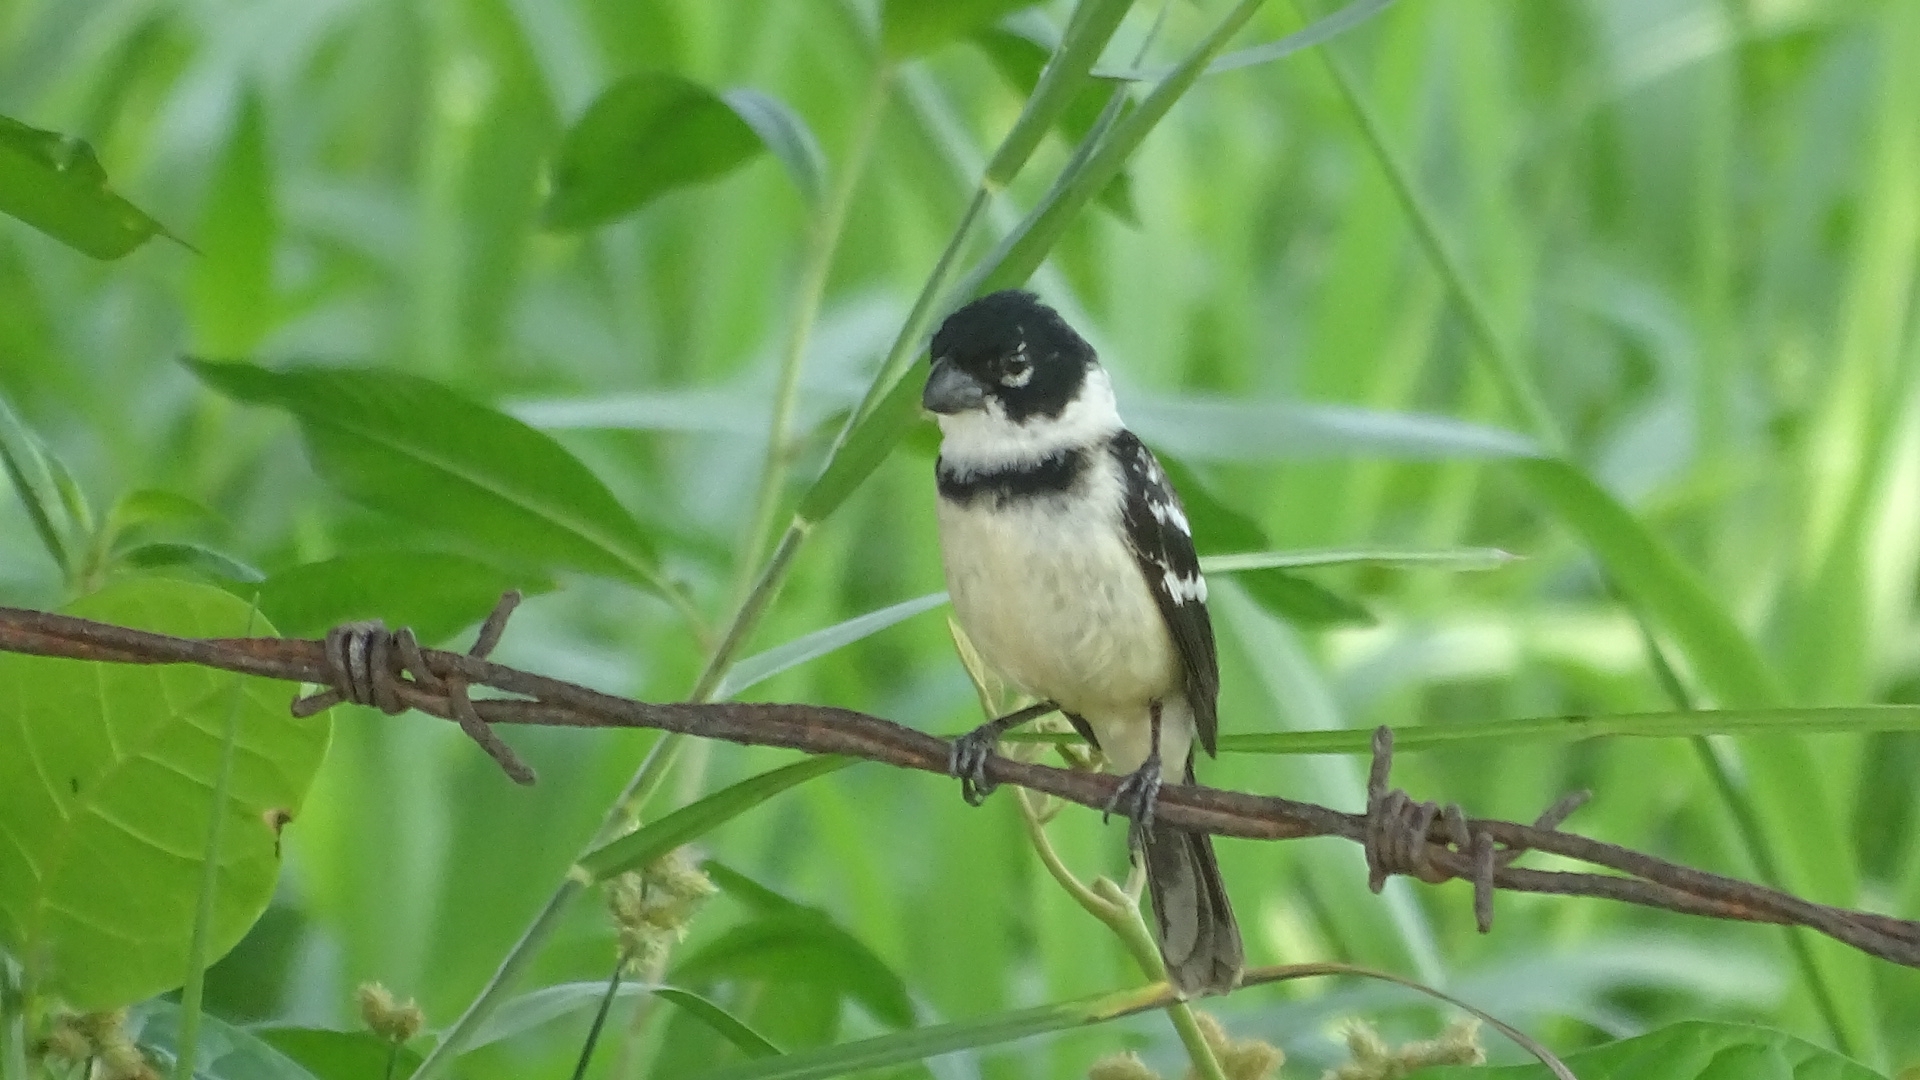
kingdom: Animalia
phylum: Chordata
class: Aves
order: Passeriformes
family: Thraupidae
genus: Sporophila
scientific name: Sporophila morelleti
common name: Morelet's seedeater
